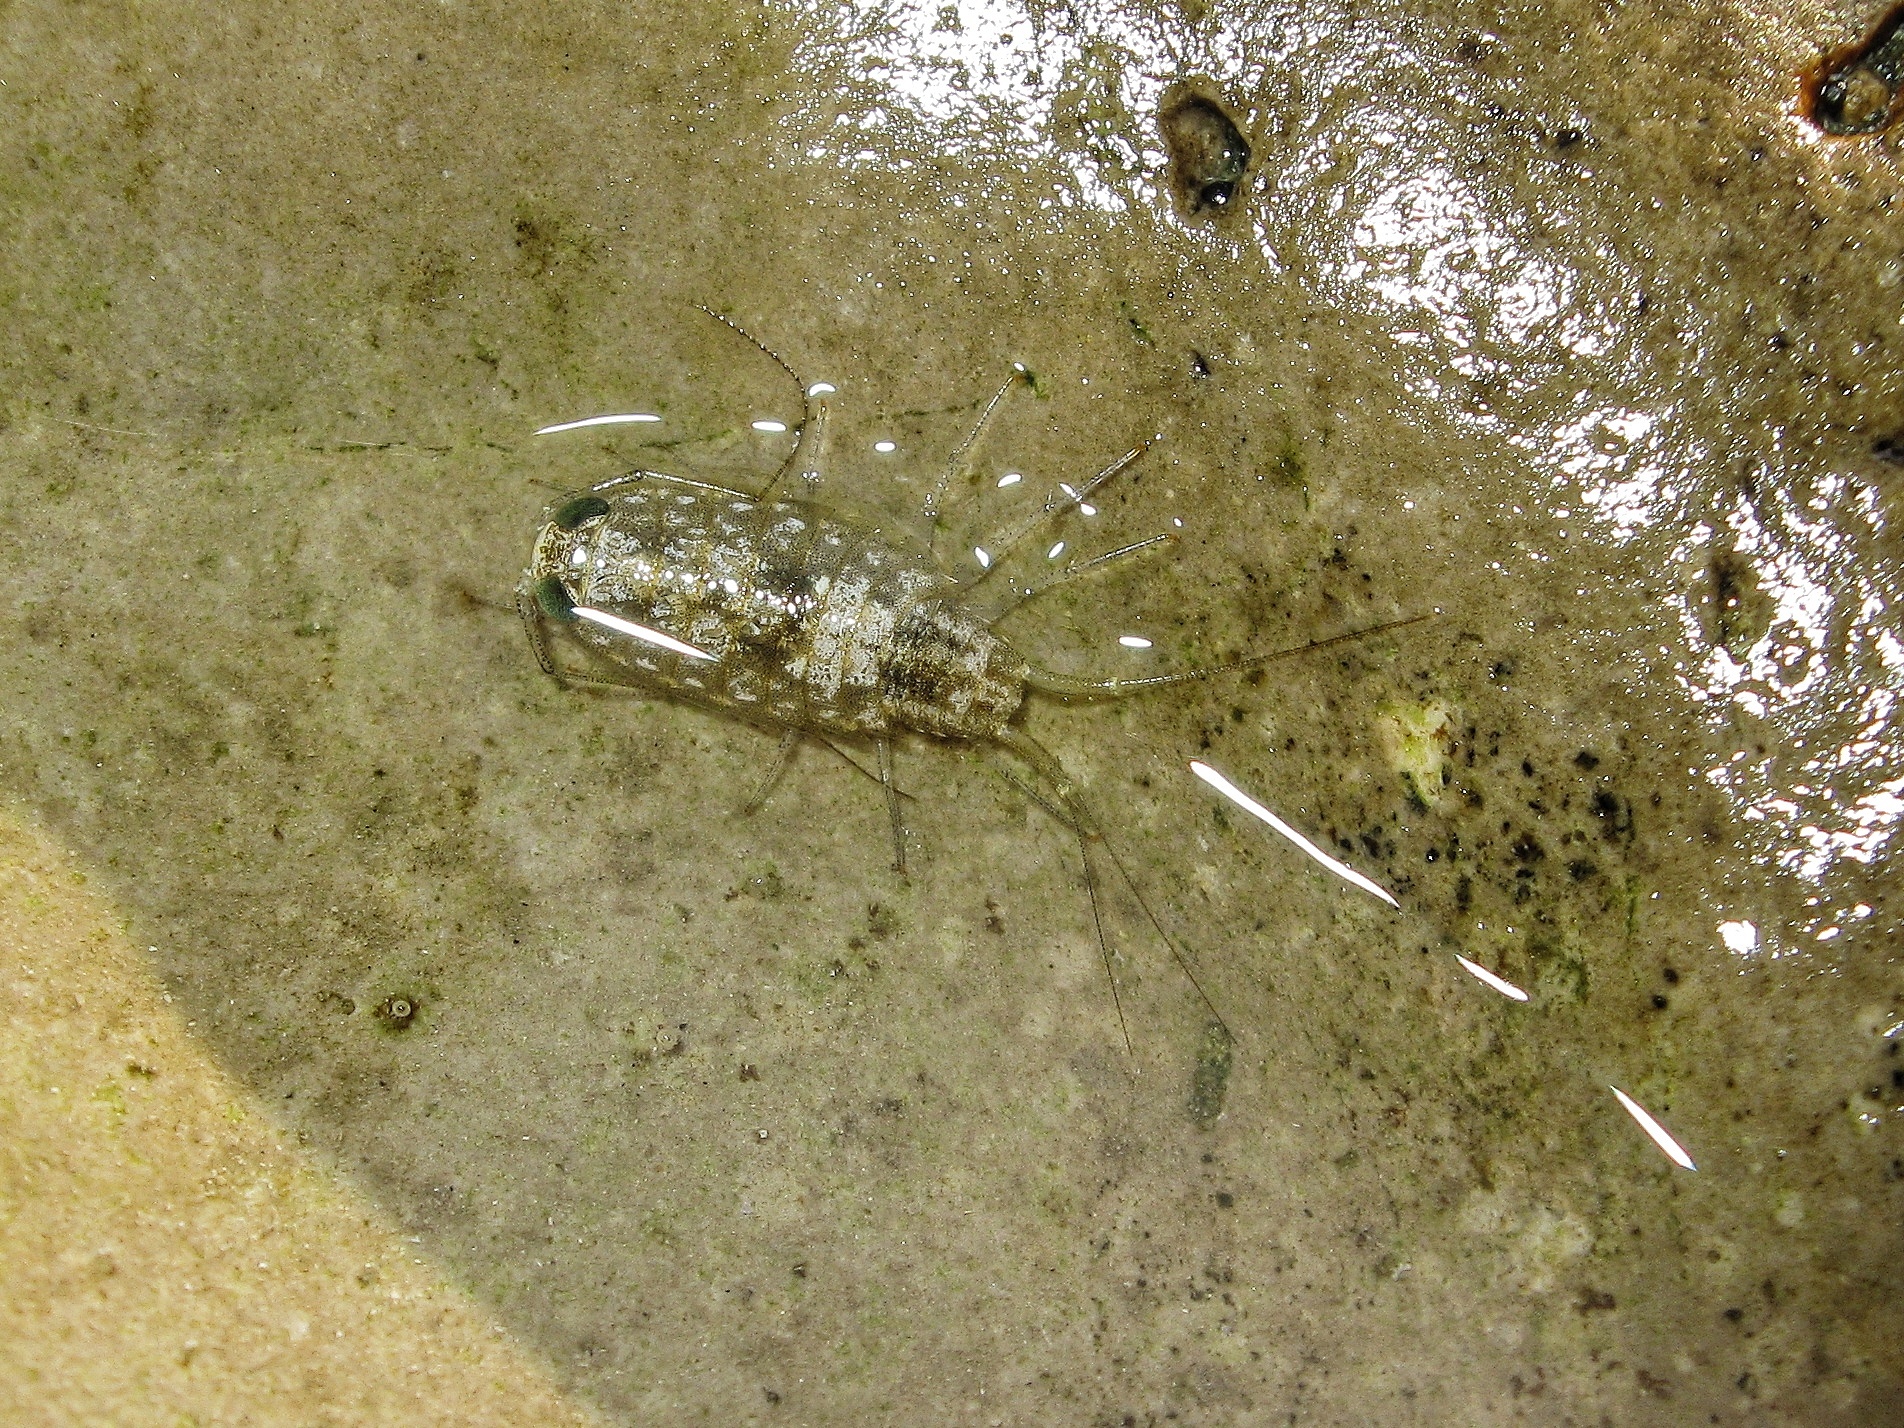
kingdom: Animalia
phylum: Arthropoda
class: Malacostraca
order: Isopoda
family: Ligiidae
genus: Ligia
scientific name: Ligia italica
